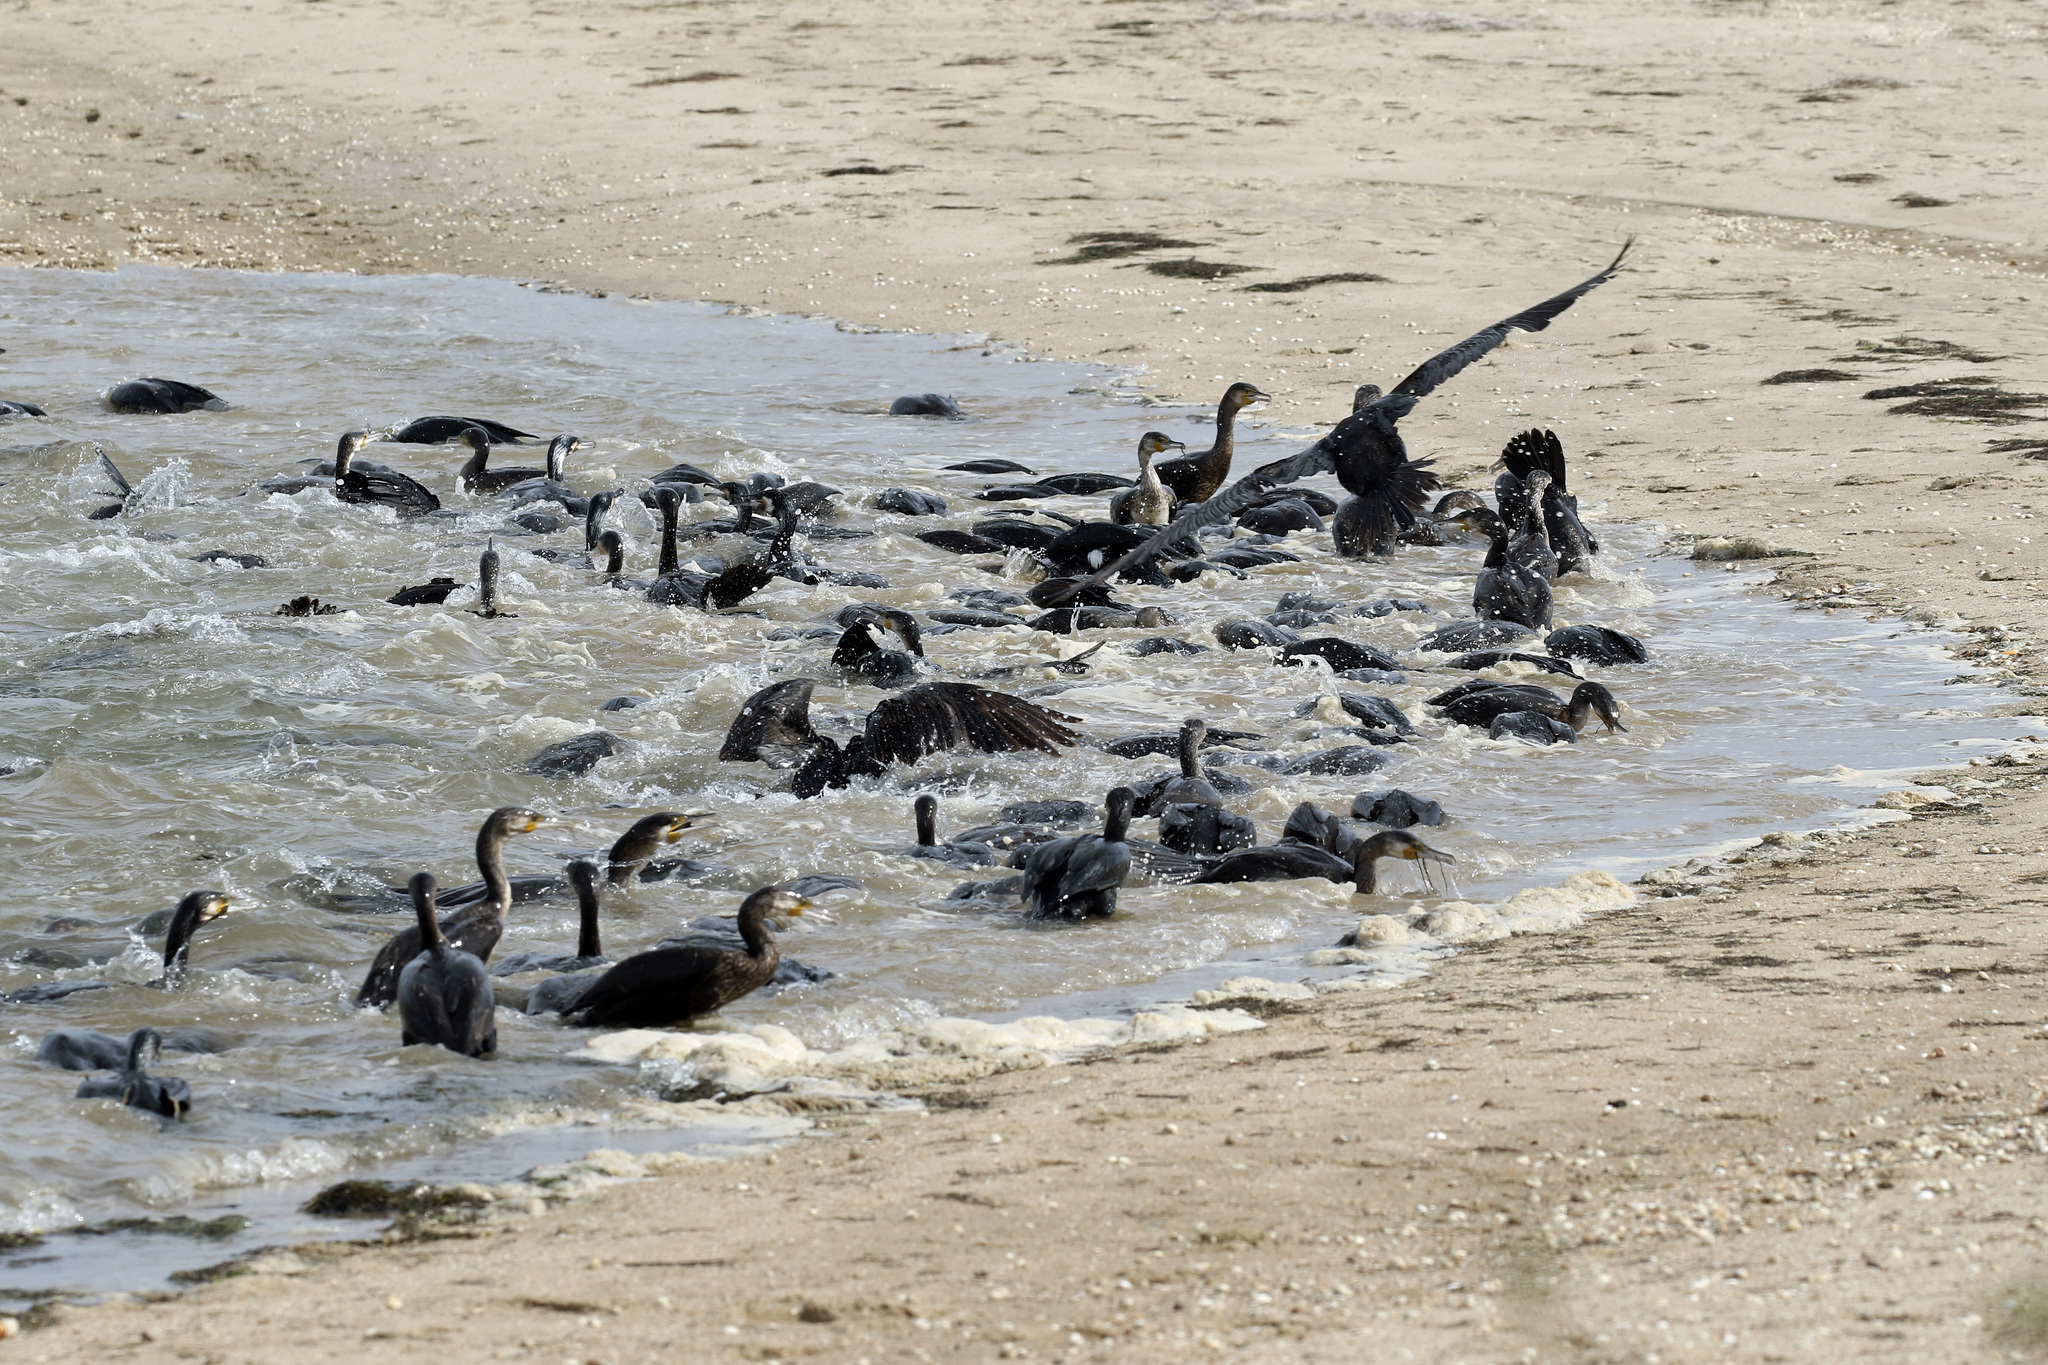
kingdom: Animalia
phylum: Chordata
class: Aves
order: Suliformes
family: Phalacrocoracidae
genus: Phalacrocorax
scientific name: Phalacrocorax carbo
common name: Great cormorant
